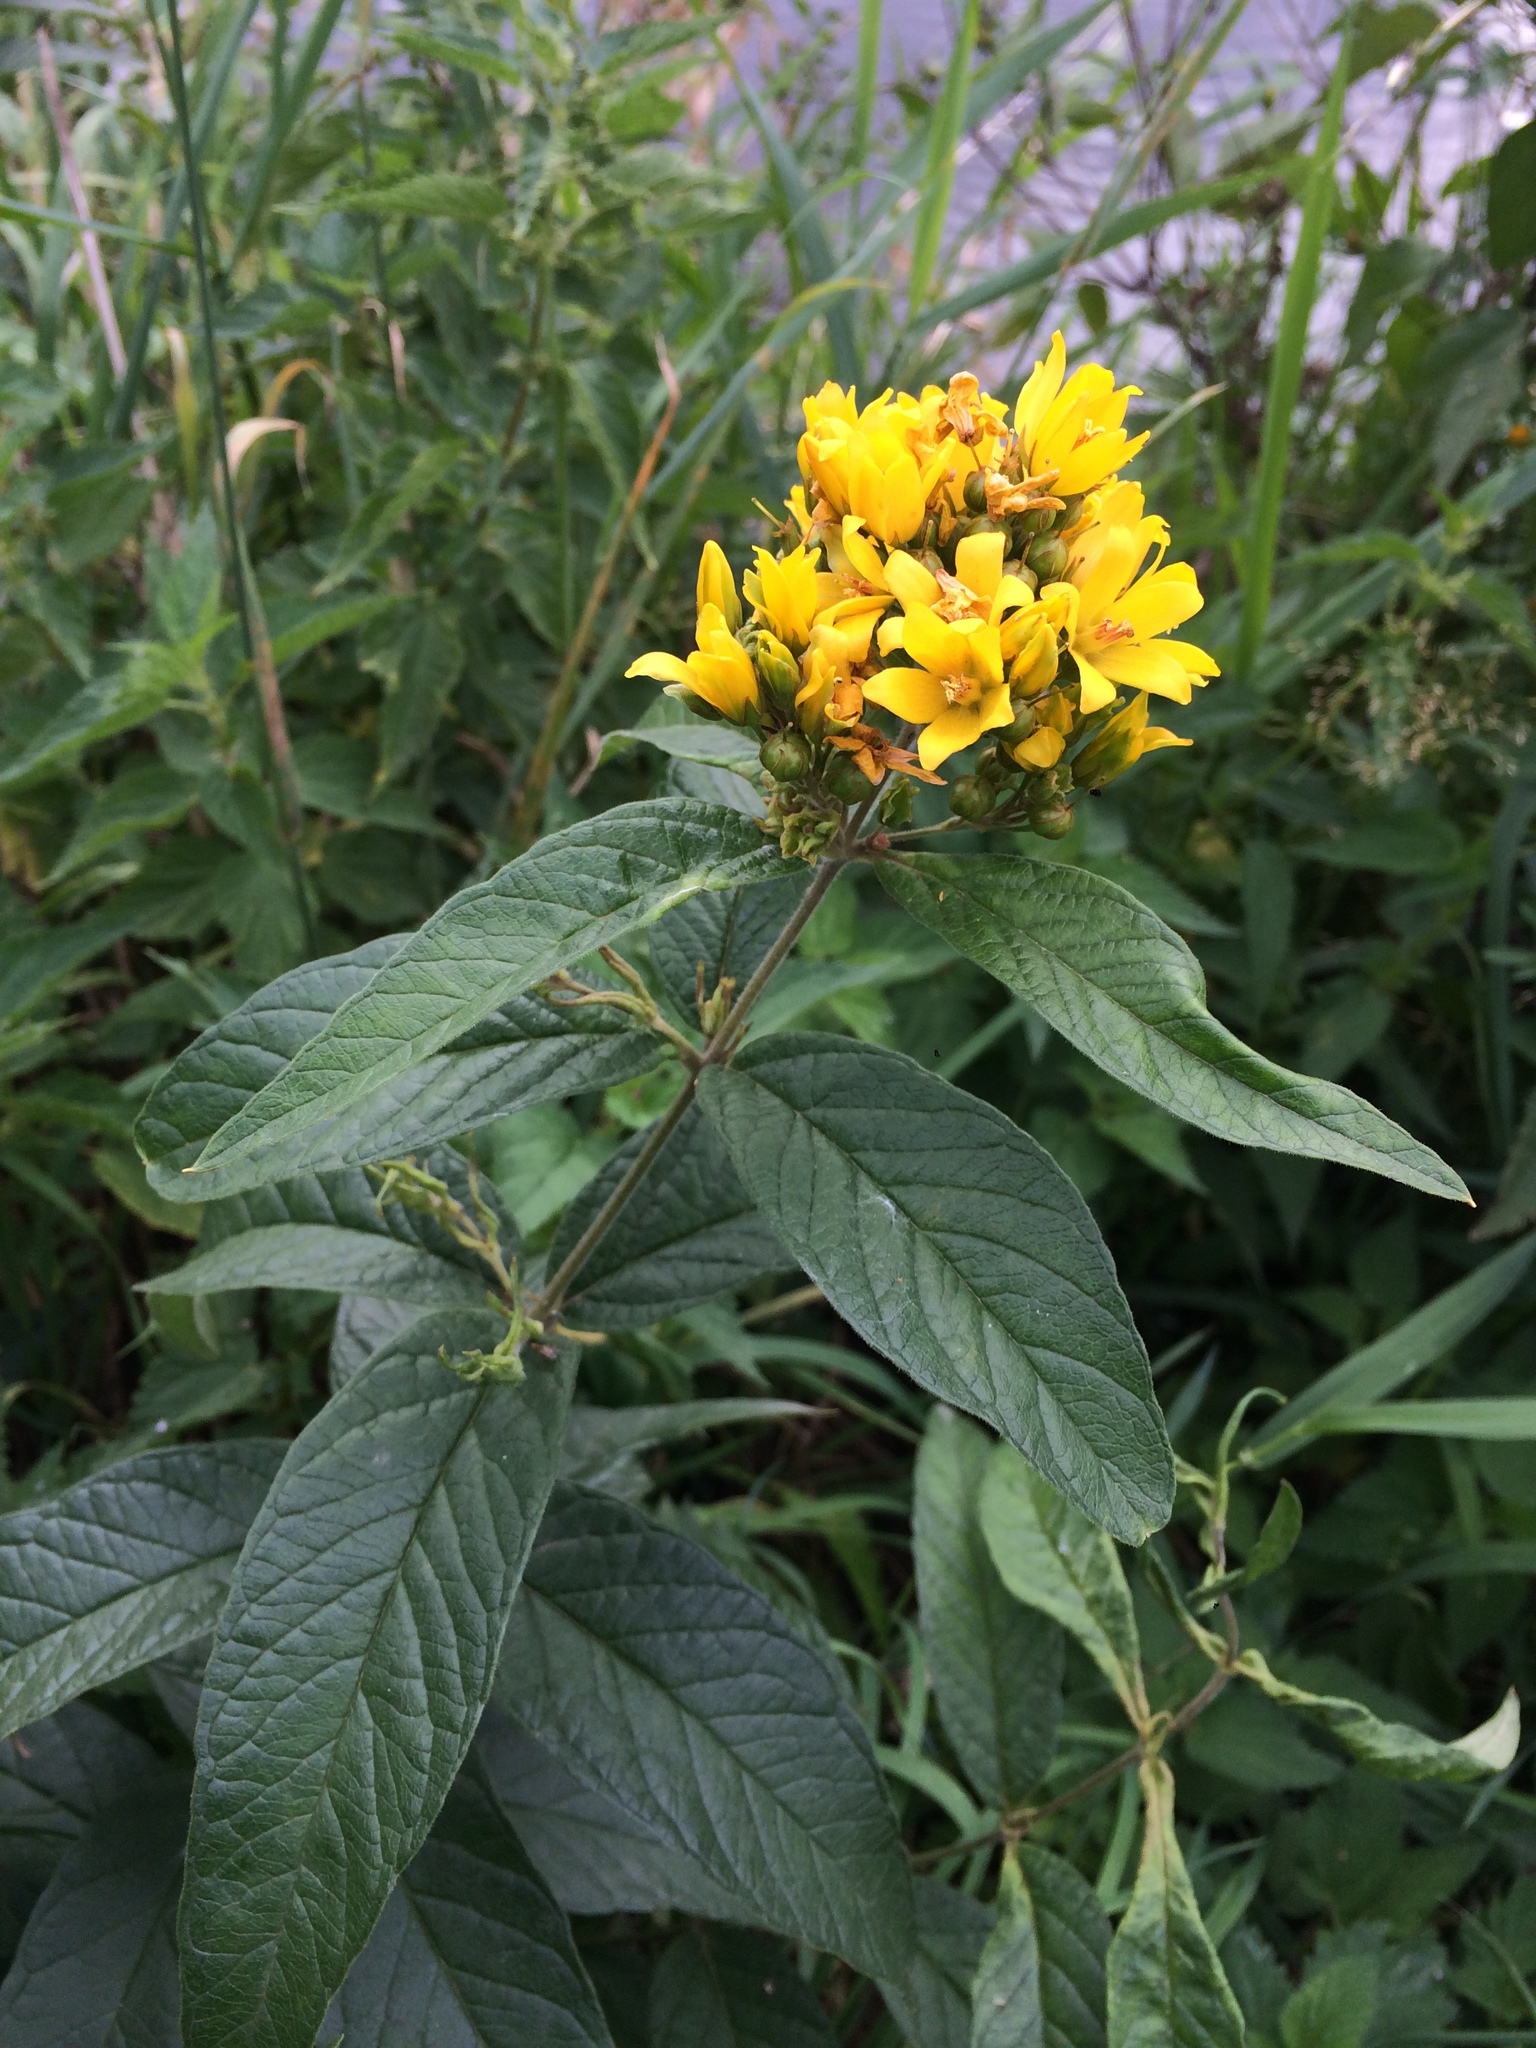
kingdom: Plantae
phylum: Tracheophyta
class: Magnoliopsida
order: Ericales
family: Primulaceae
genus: Lysimachia
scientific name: Lysimachia vulgaris
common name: Yellow loosestrife
